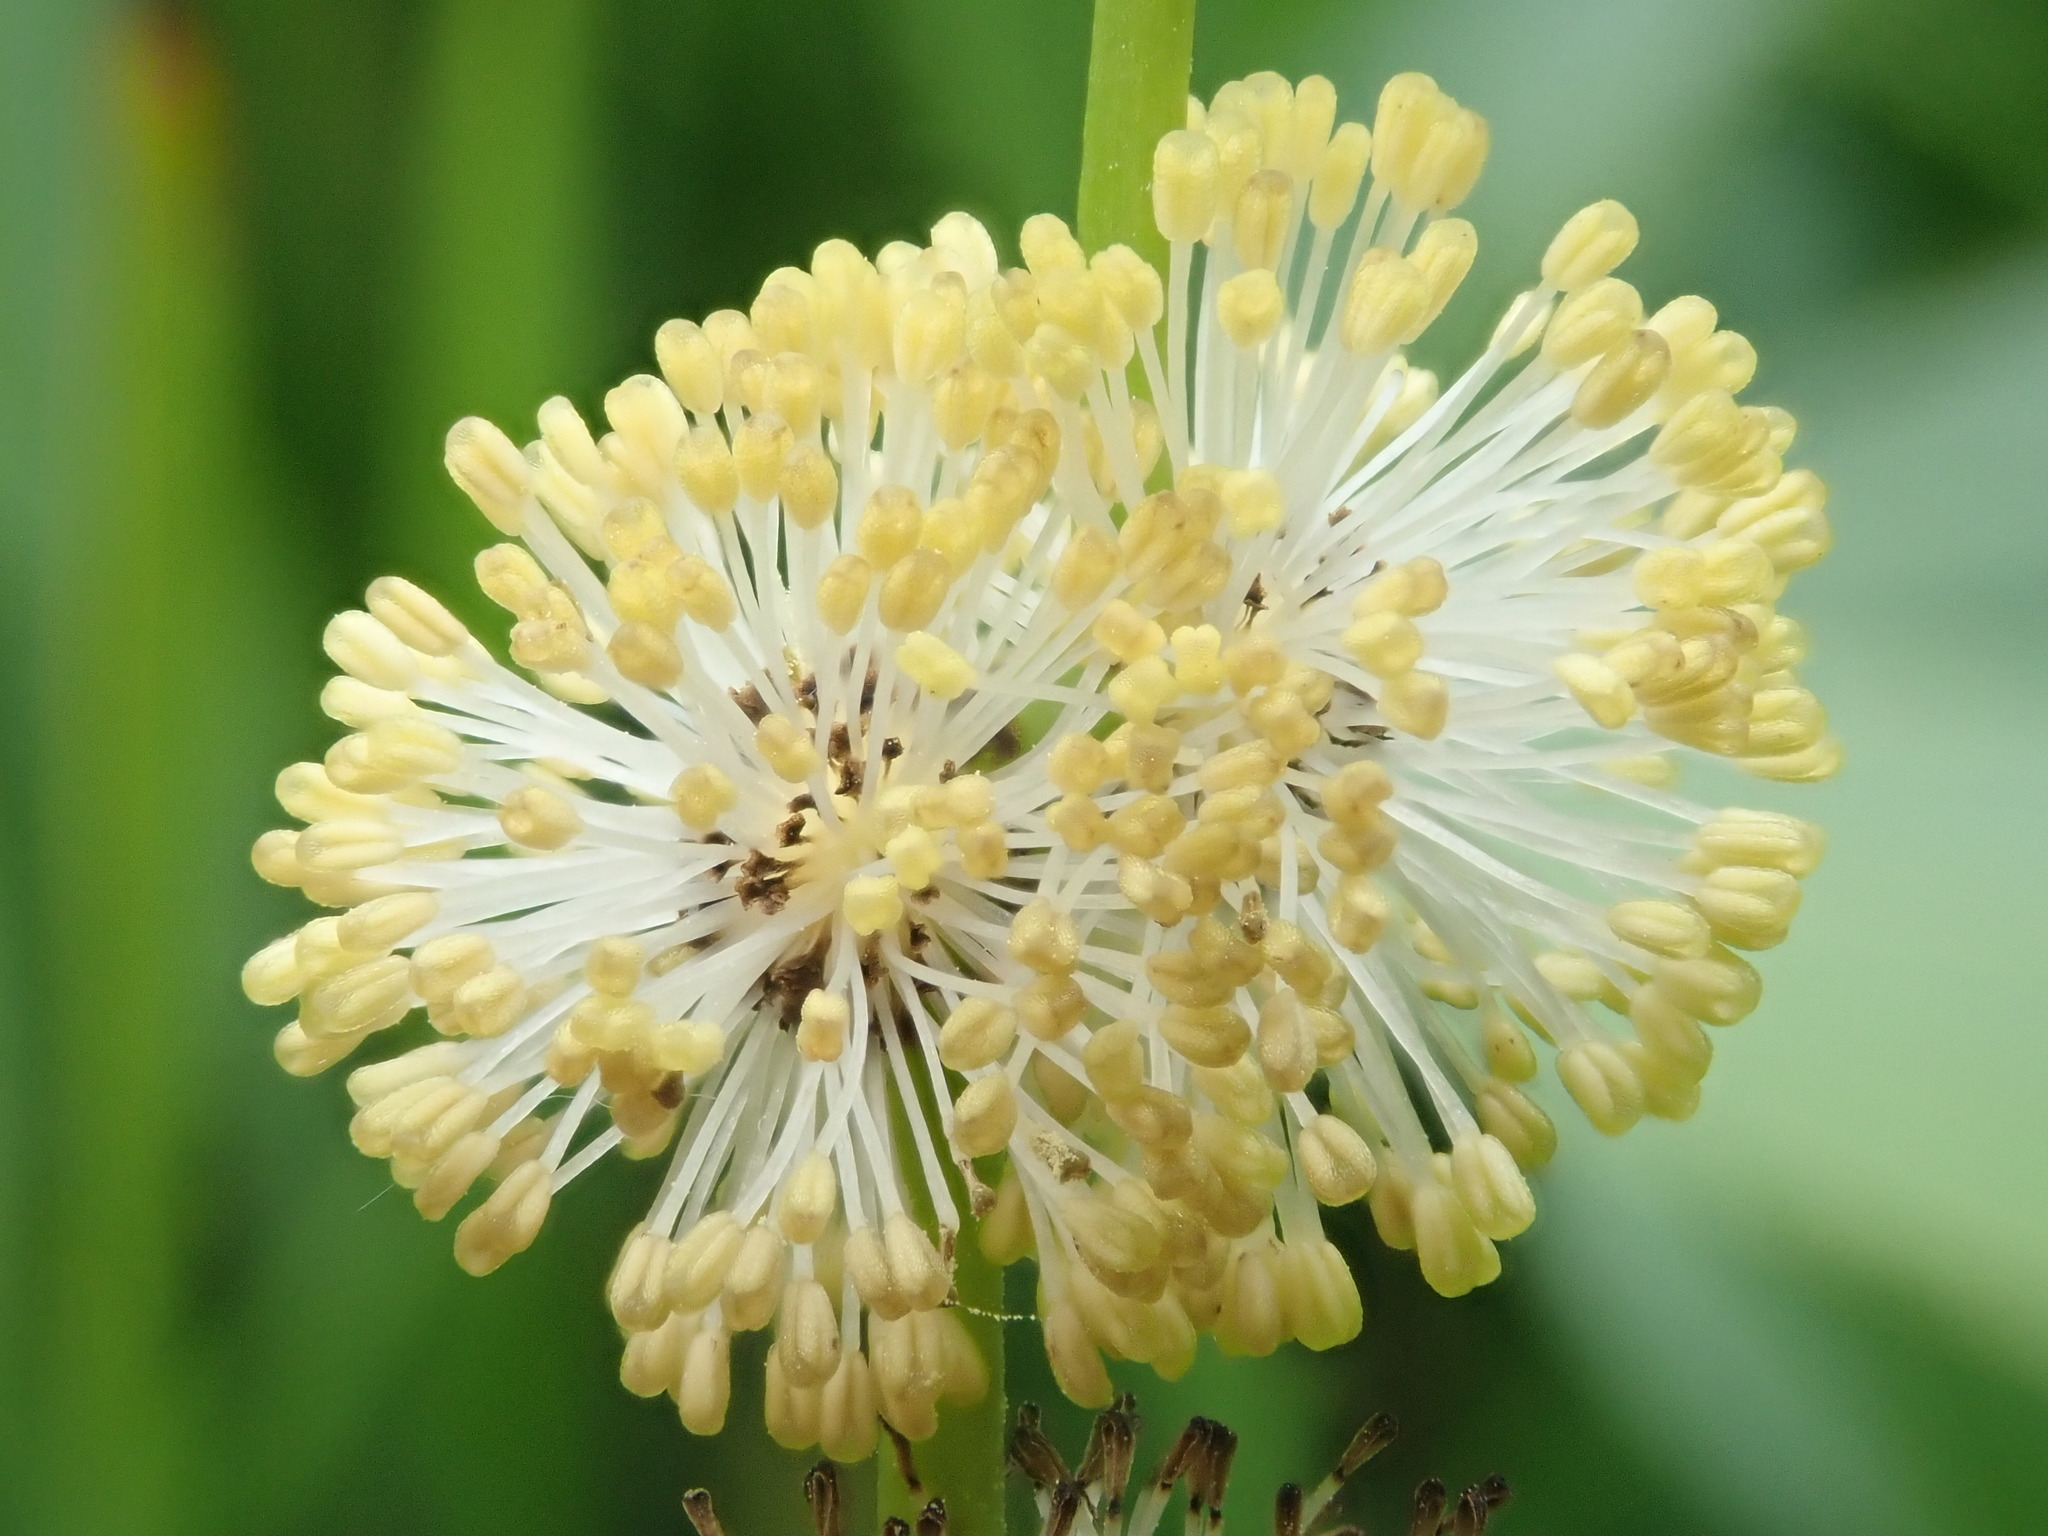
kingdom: Plantae
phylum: Tracheophyta
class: Liliopsida
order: Poales
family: Typhaceae
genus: Sparganium
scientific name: Sparganium eurycarpum
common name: Broad-fruited burreed
